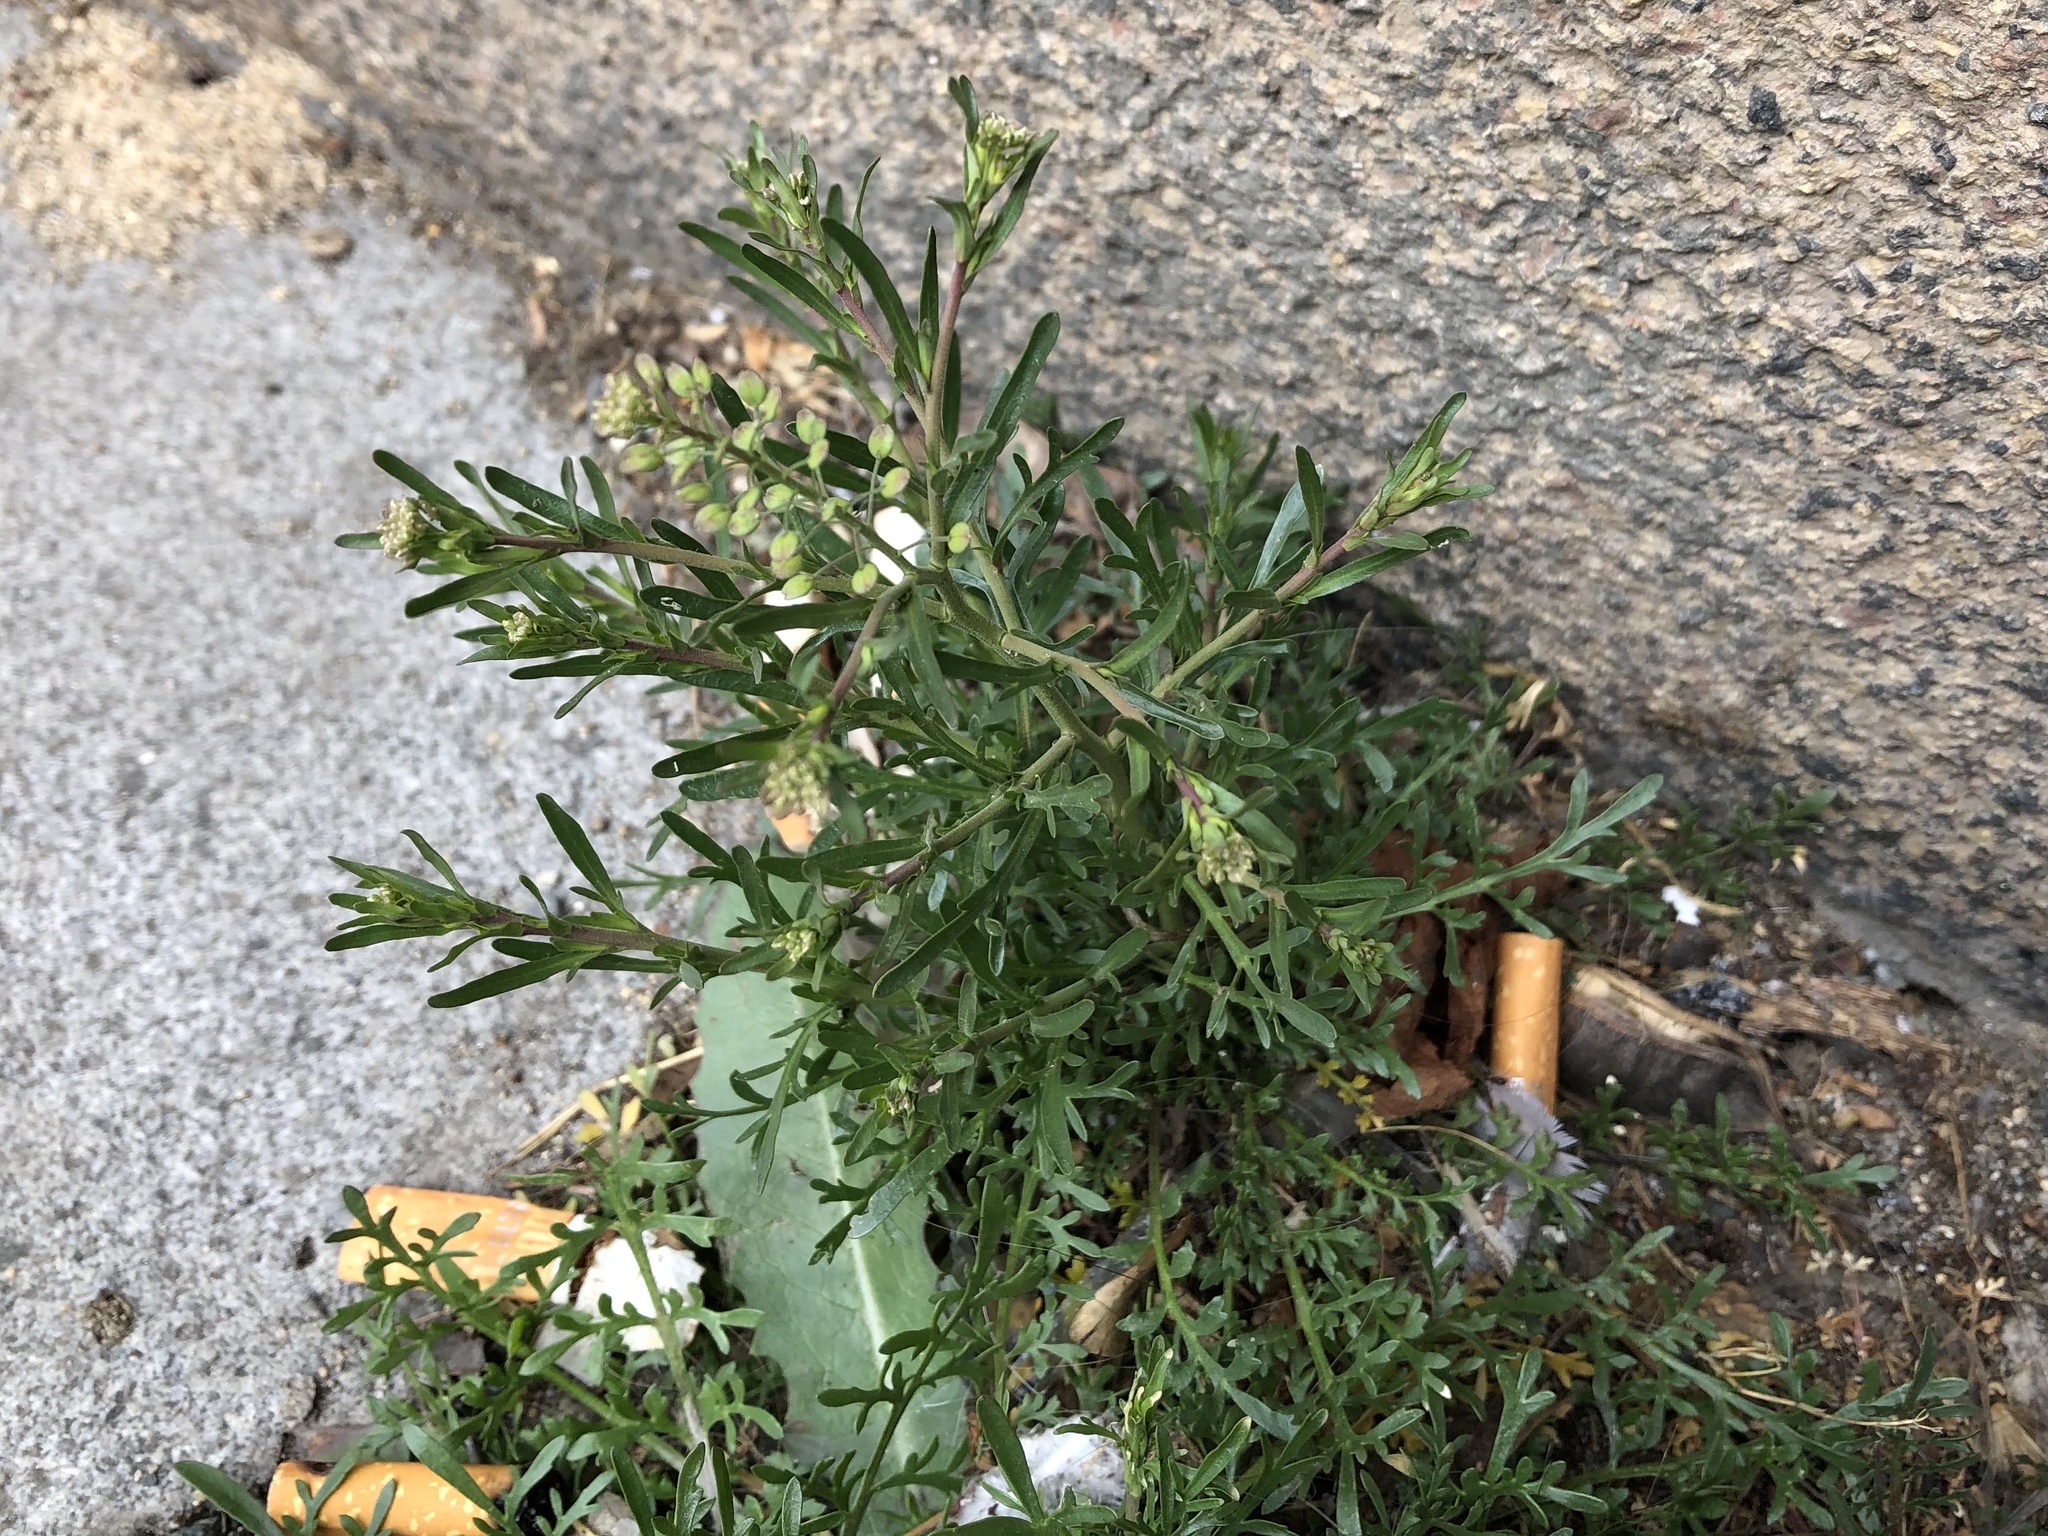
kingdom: Plantae
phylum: Tracheophyta
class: Magnoliopsida
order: Brassicales
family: Brassicaceae
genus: Lepidium
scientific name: Lepidium ruderale
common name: Narrow-leaved pepperwort
